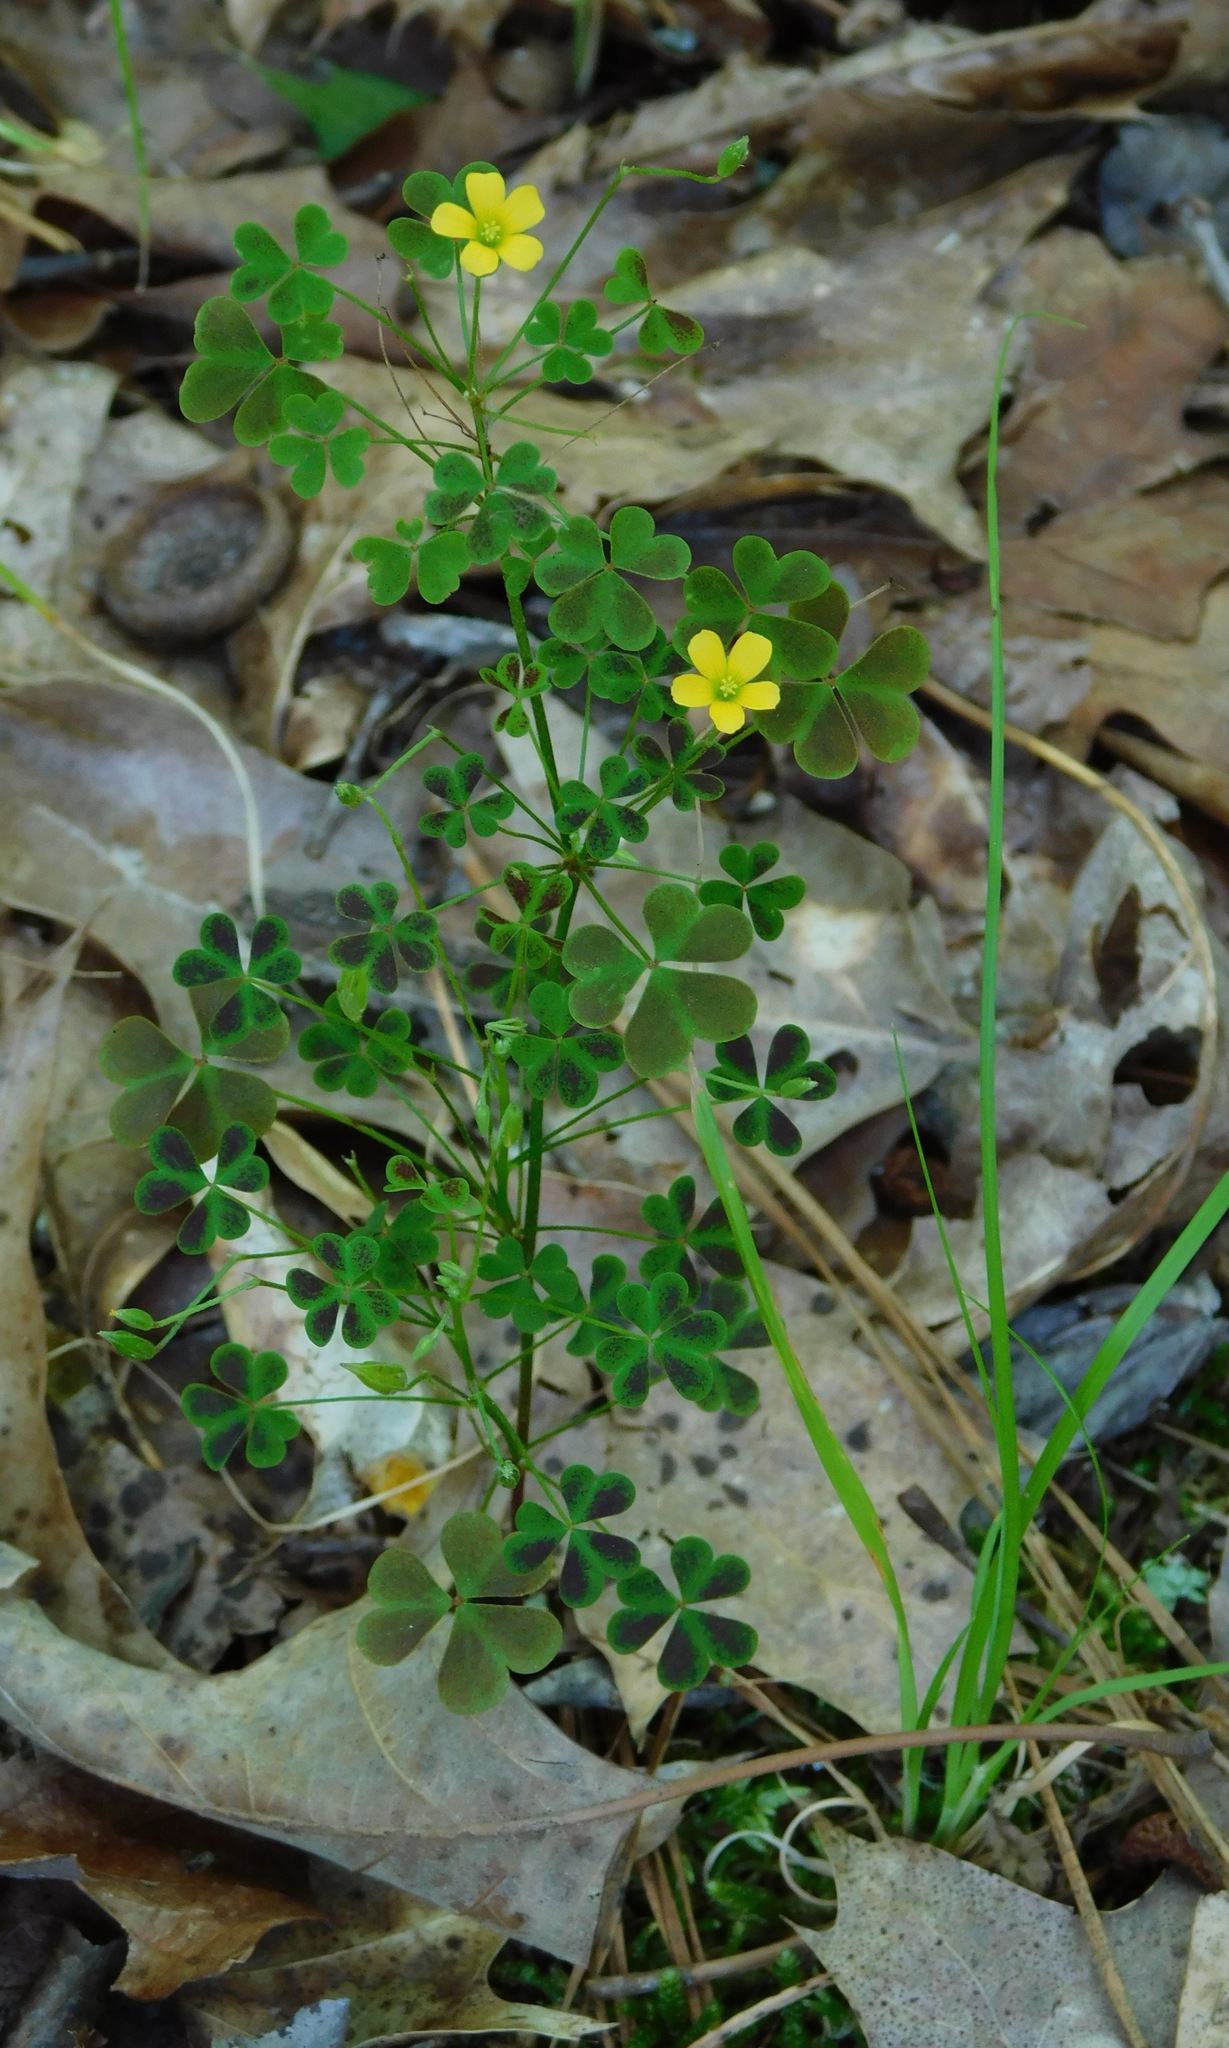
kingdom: Plantae
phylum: Tracheophyta
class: Magnoliopsida
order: Oxalidales
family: Oxalidaceae
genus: Oxalis
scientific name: Oxalis colorea
